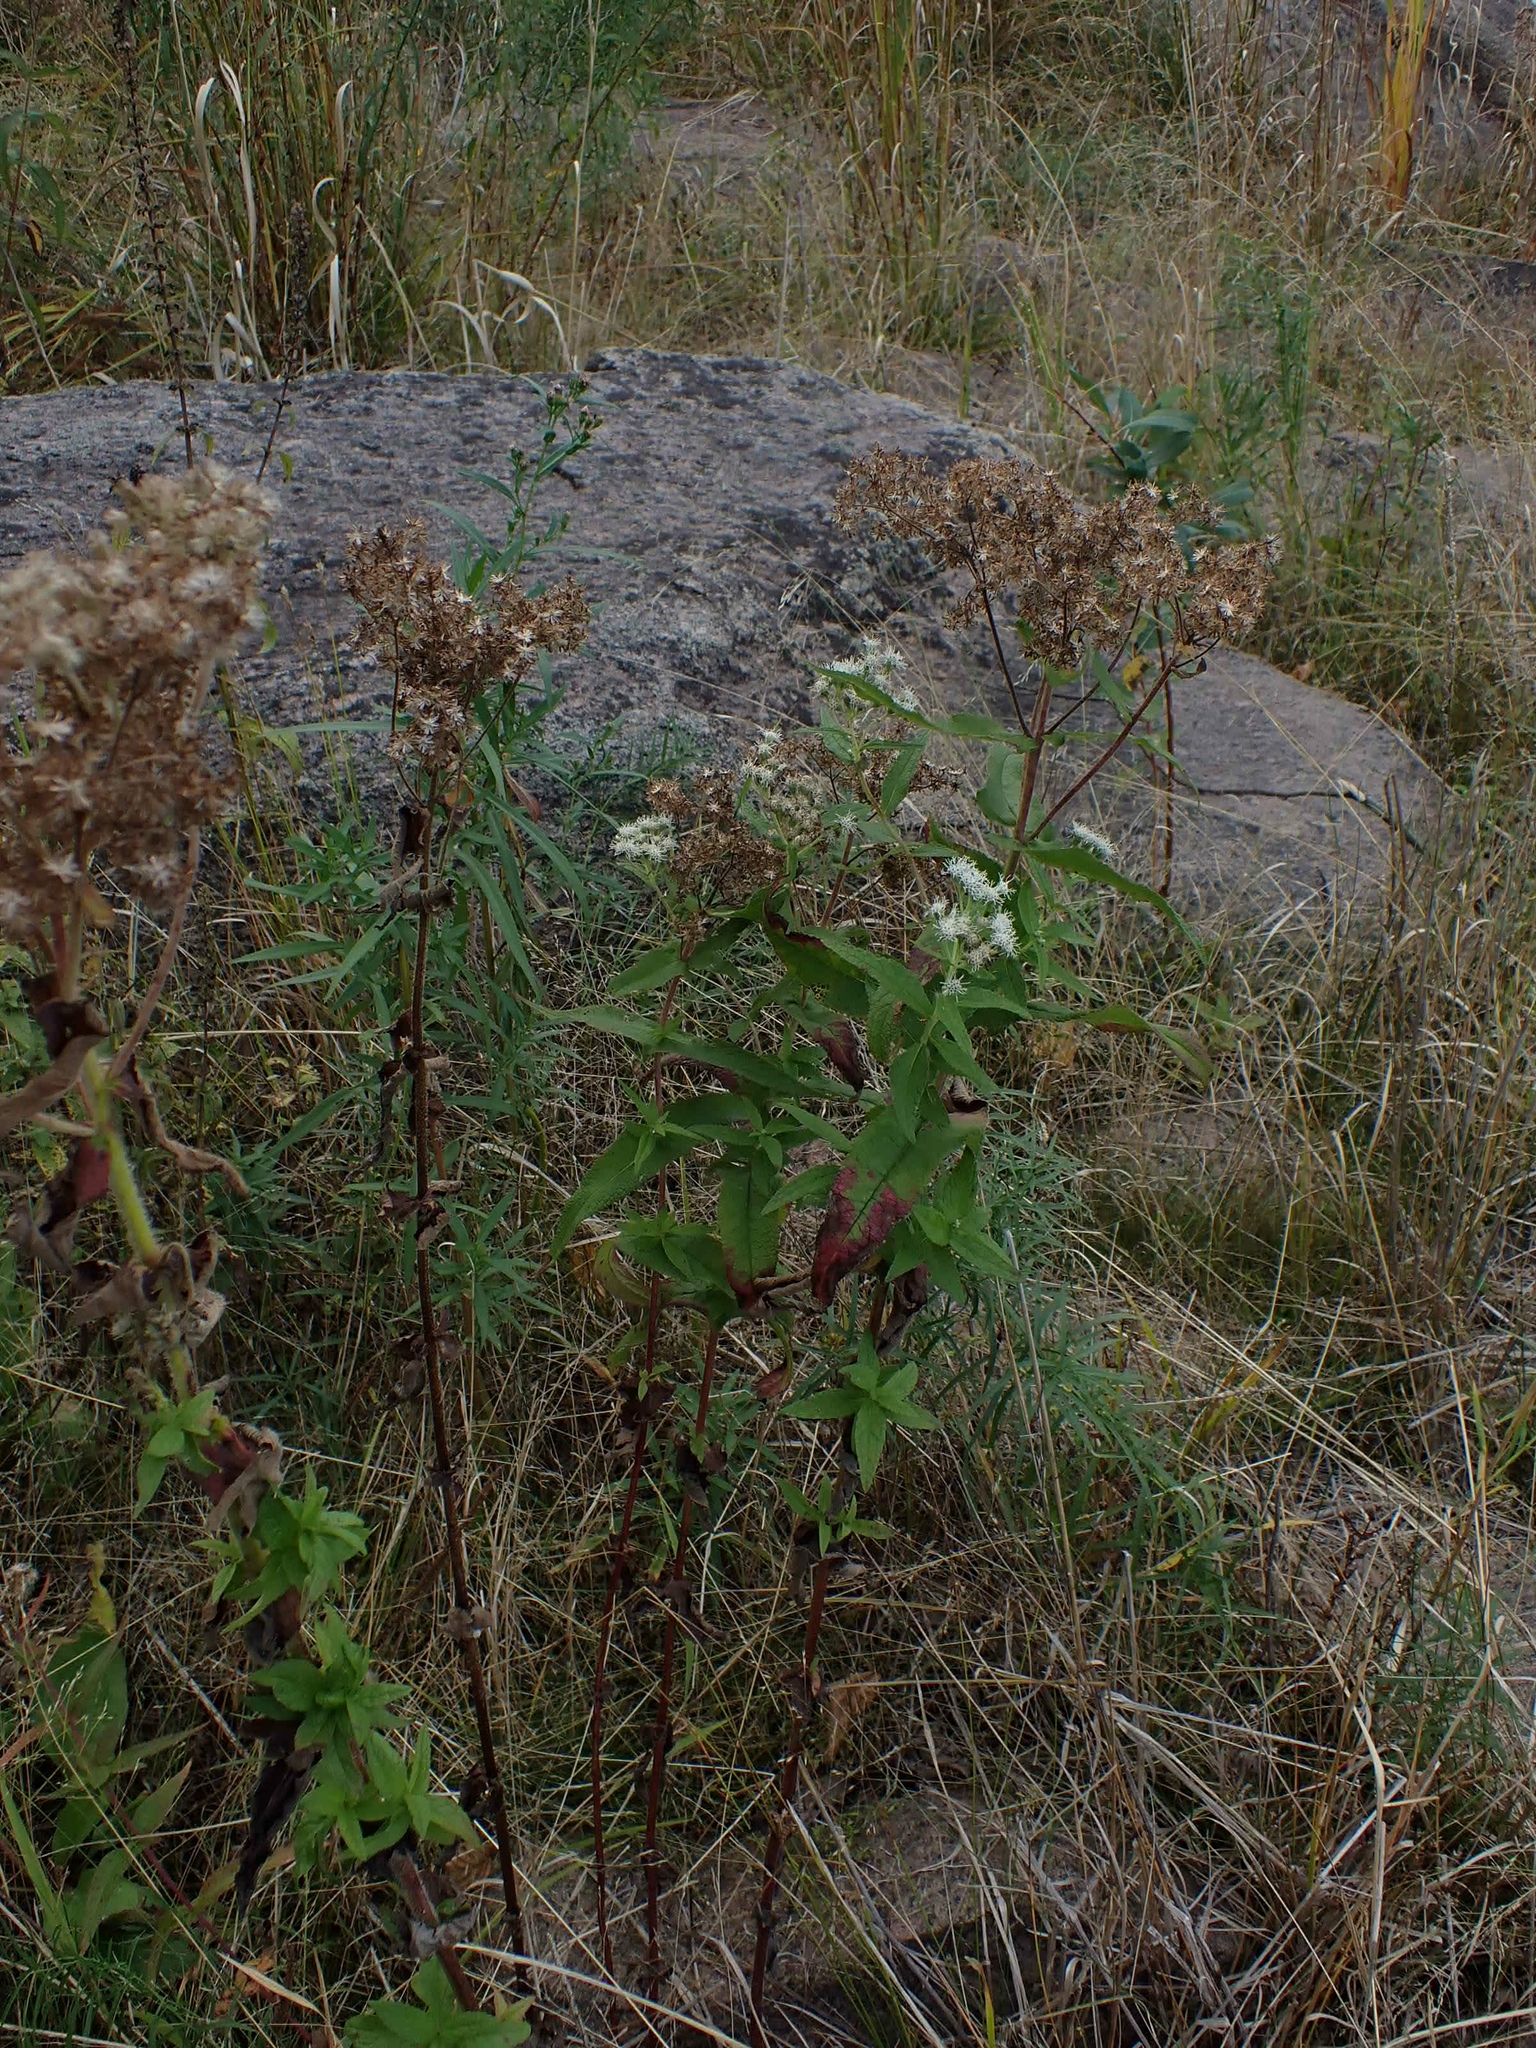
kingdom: Plantae
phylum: Tracheophyta
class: Magnoliopsida
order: Asterales
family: Asteraceae
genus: Eupatorium
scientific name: Eupatorium perfoliatum
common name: Boneset
